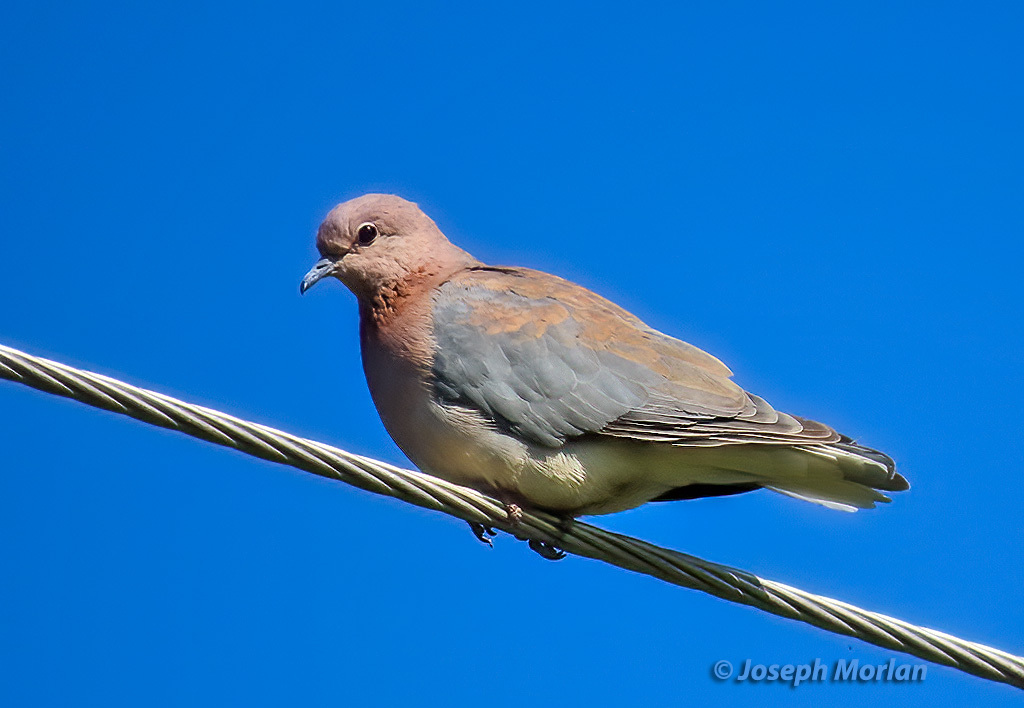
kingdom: Animalia
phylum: Chordata
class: Aves
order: Columbiformes
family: Columbidae
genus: Spilopelia
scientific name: Spilopelia senegalensis
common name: Laughing dove
